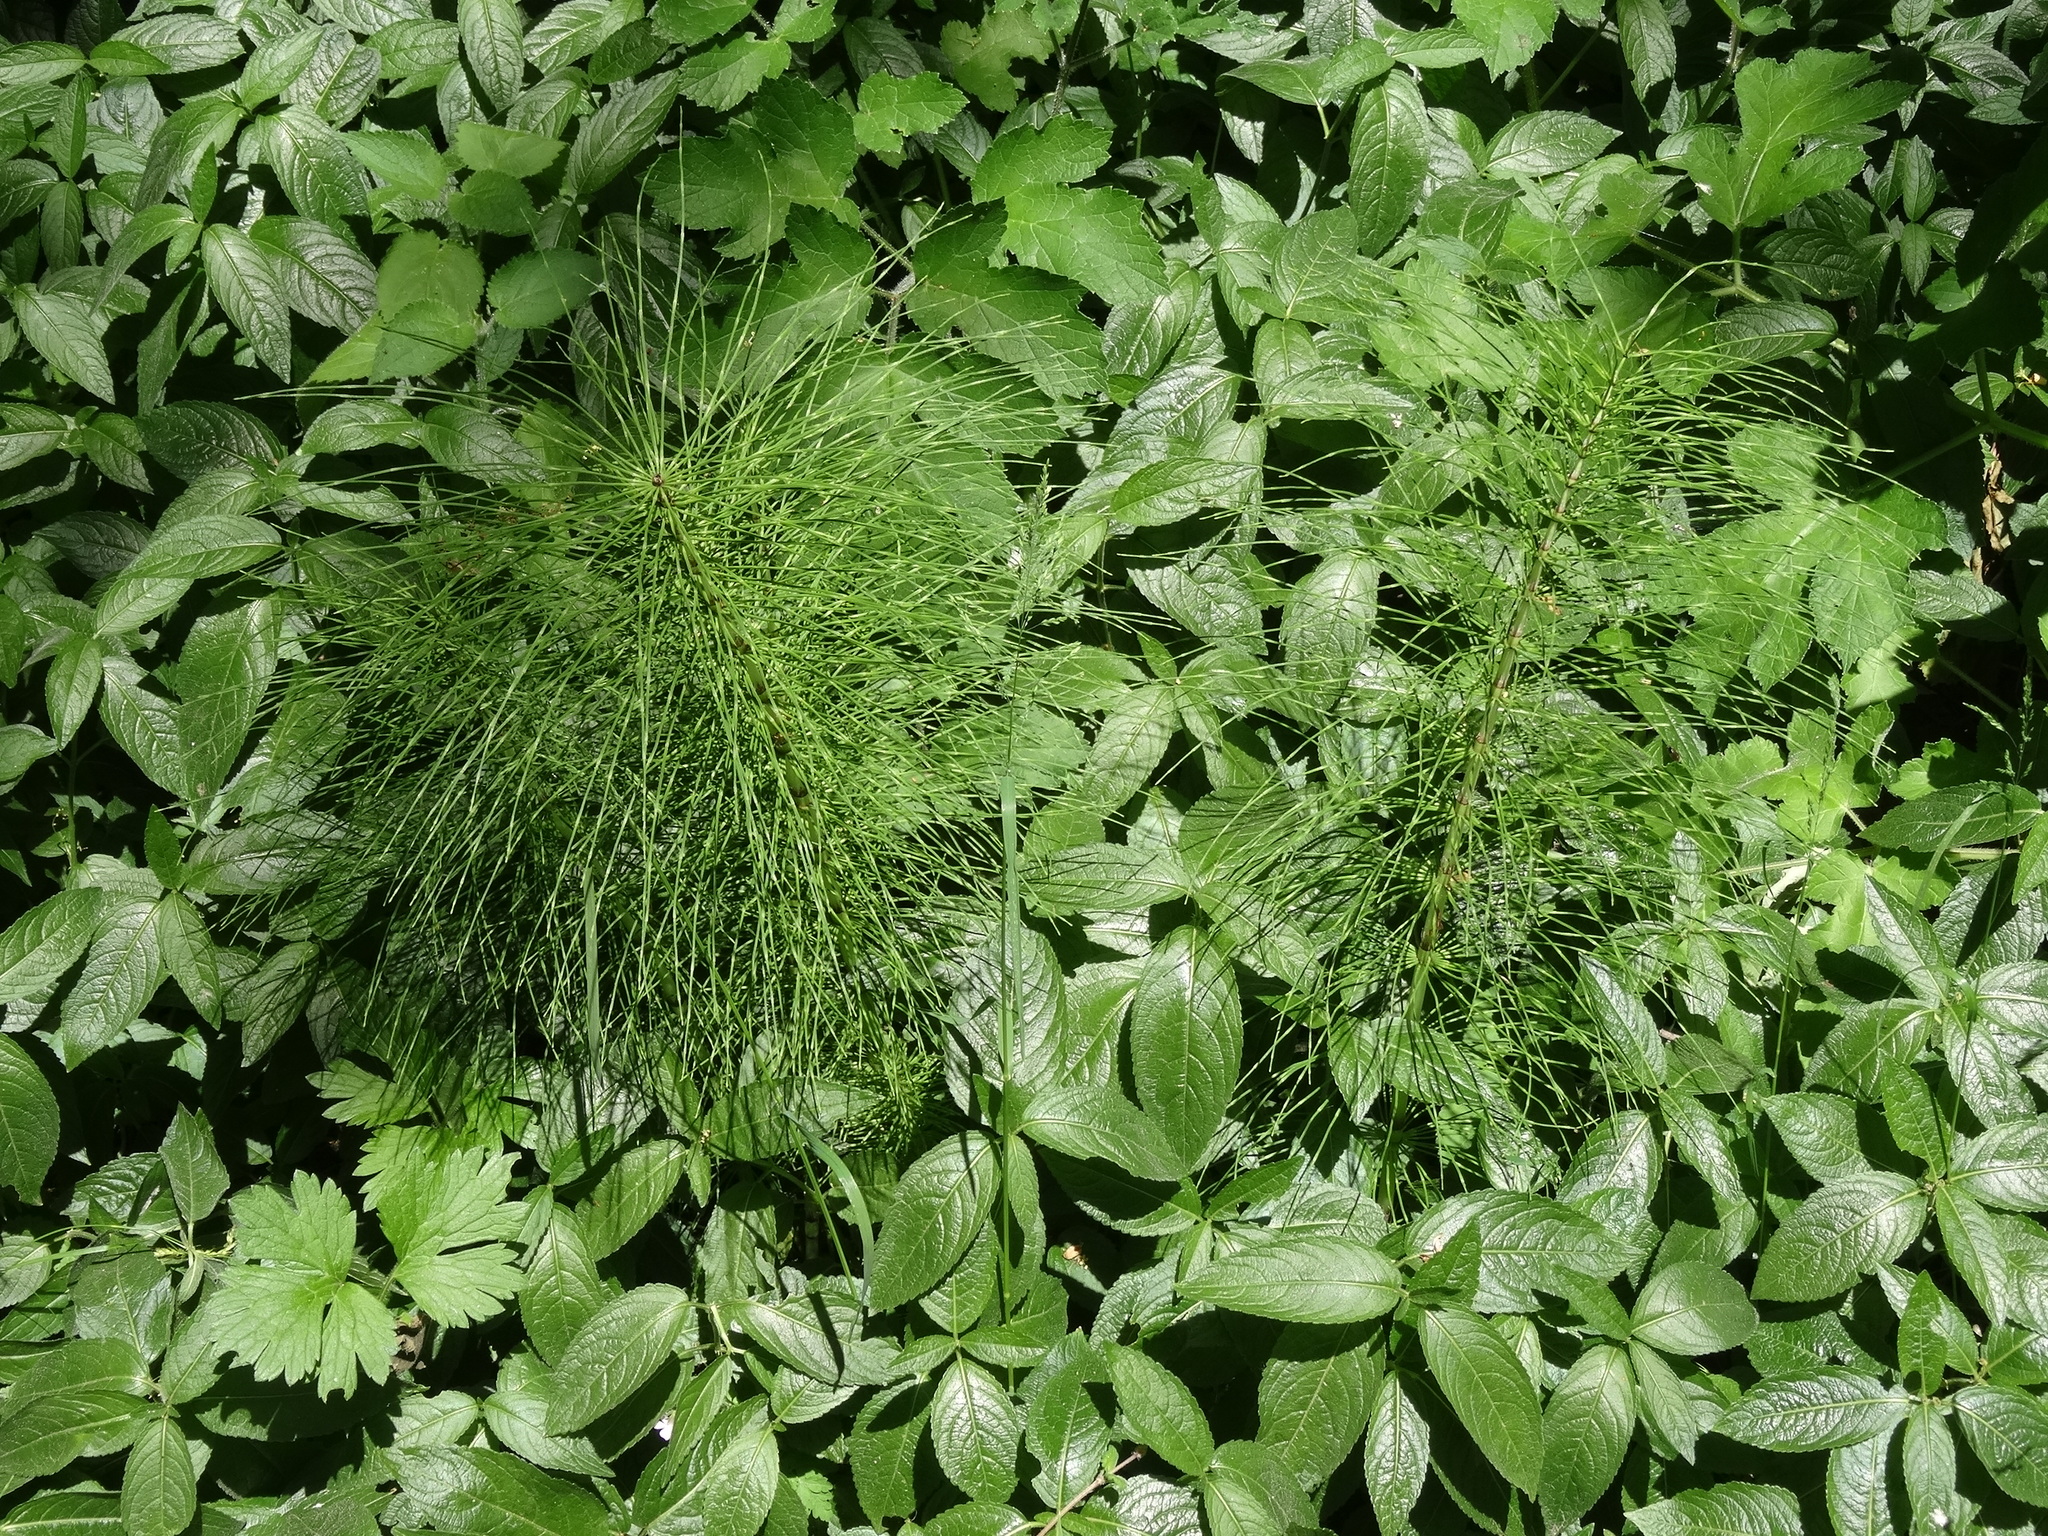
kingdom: Plantae
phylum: Tracheophyta
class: Polypodiopsida
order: Equisetales
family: Equisetaceae
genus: Equisetum
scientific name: Equisetum telmateia
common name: Great horsetail
